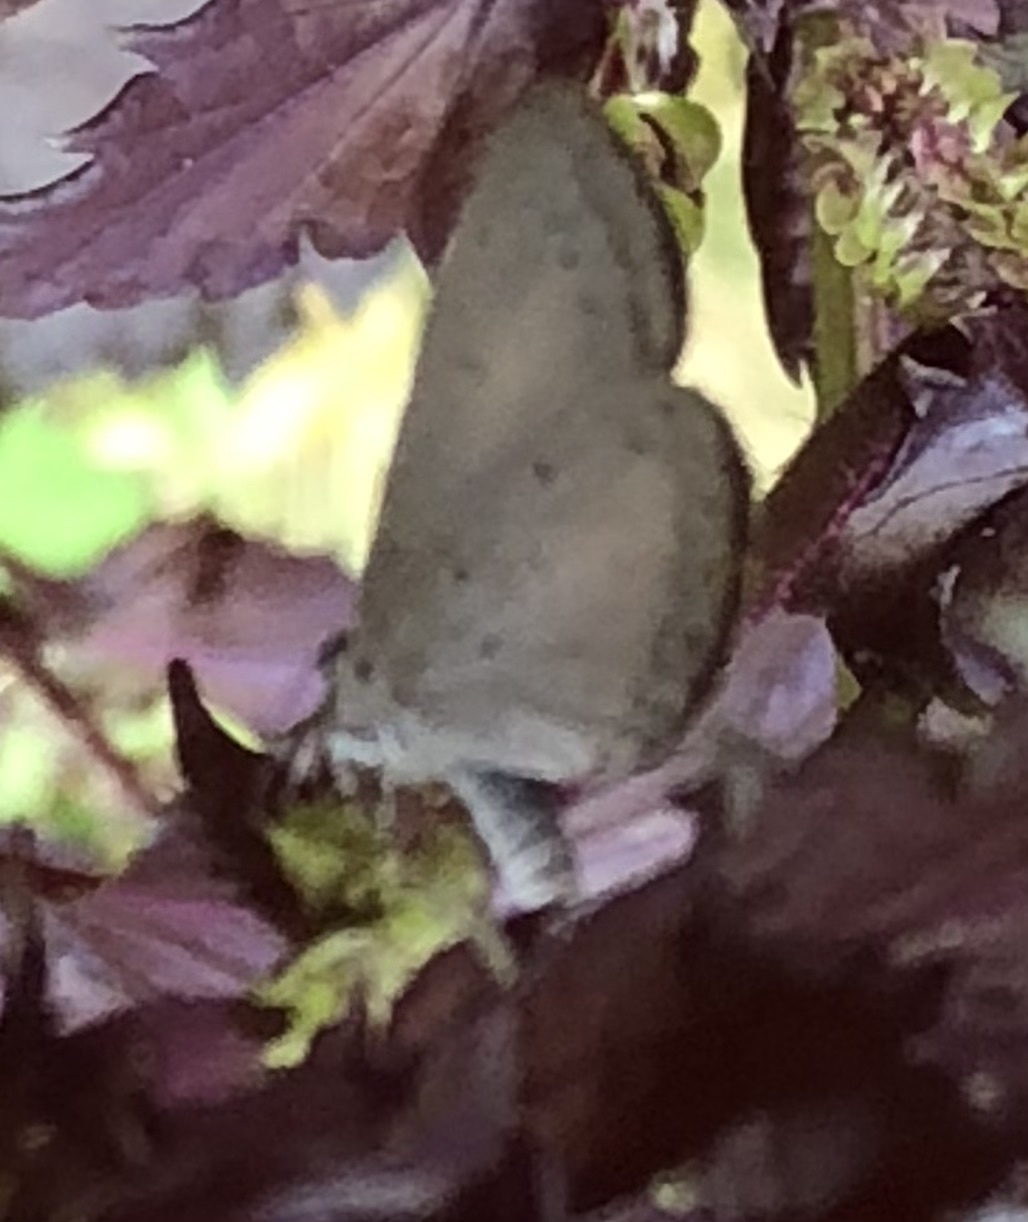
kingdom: Animalia
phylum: Arthropoda
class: Insecta
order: Lepidoptera
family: Lycaenidae
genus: Cyaniris
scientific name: Cyaniris neglecta
